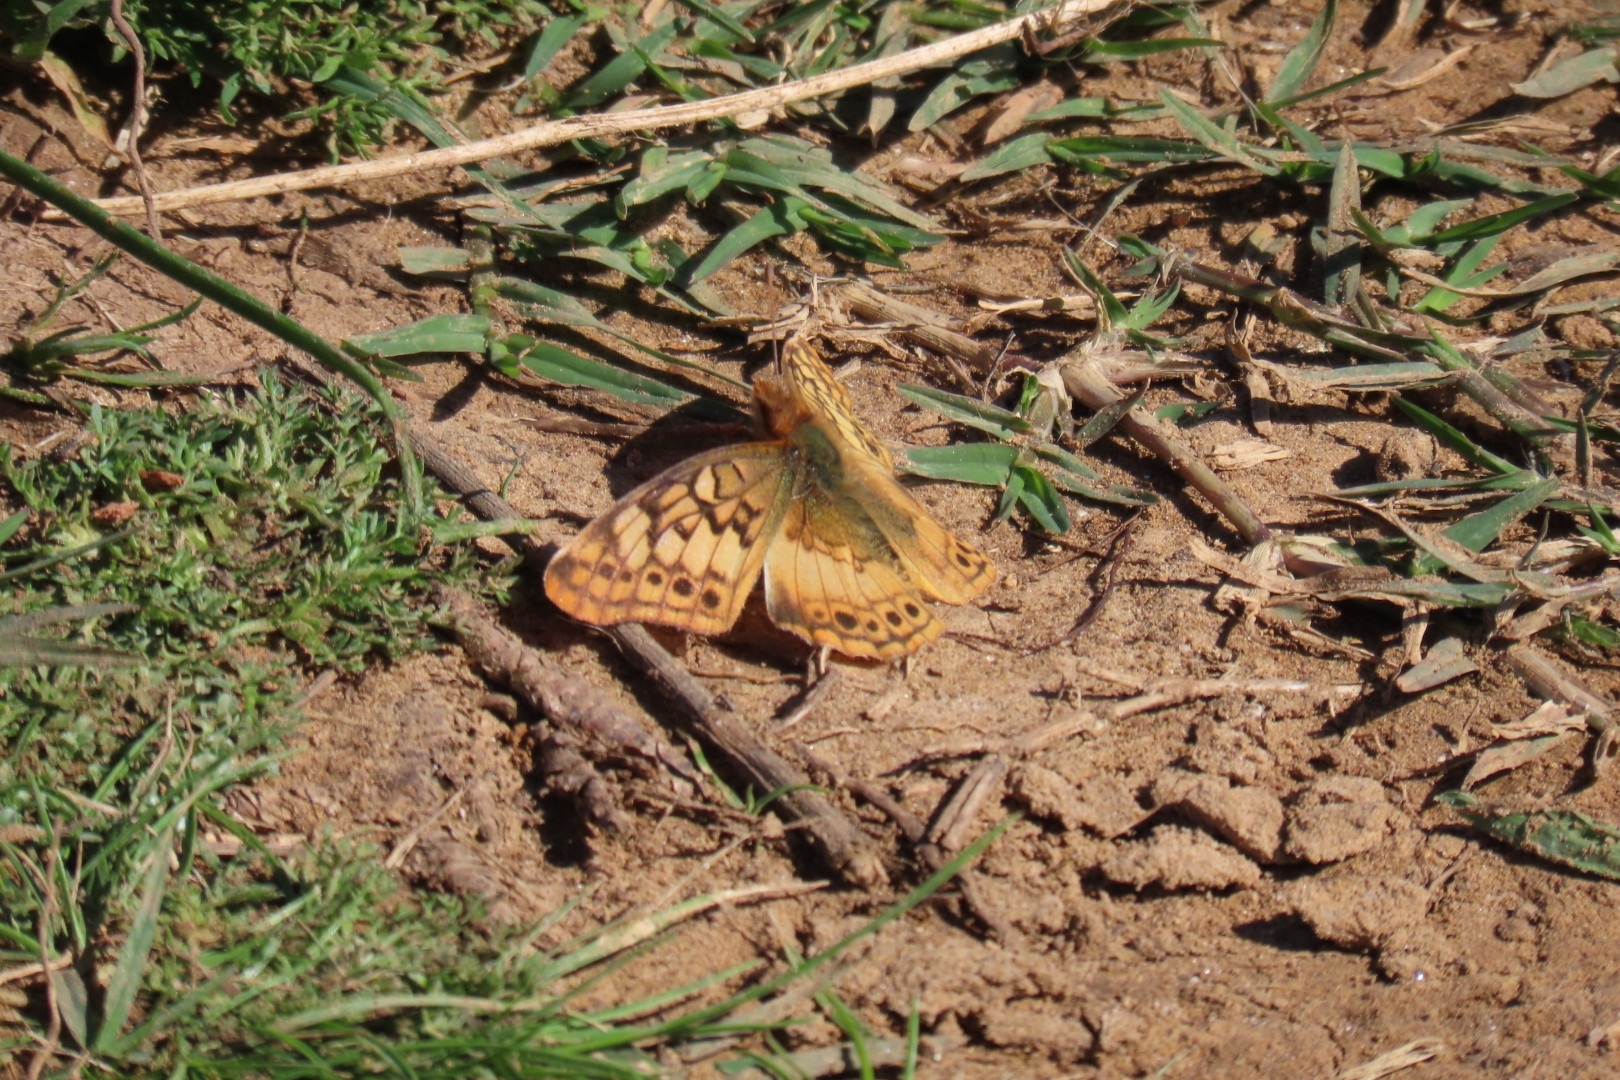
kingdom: Animalia
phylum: Arthropoda
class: Insecta
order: Lepidoptera
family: Nymphalidae
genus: Euptoieta
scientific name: Euptoieta hortensia
